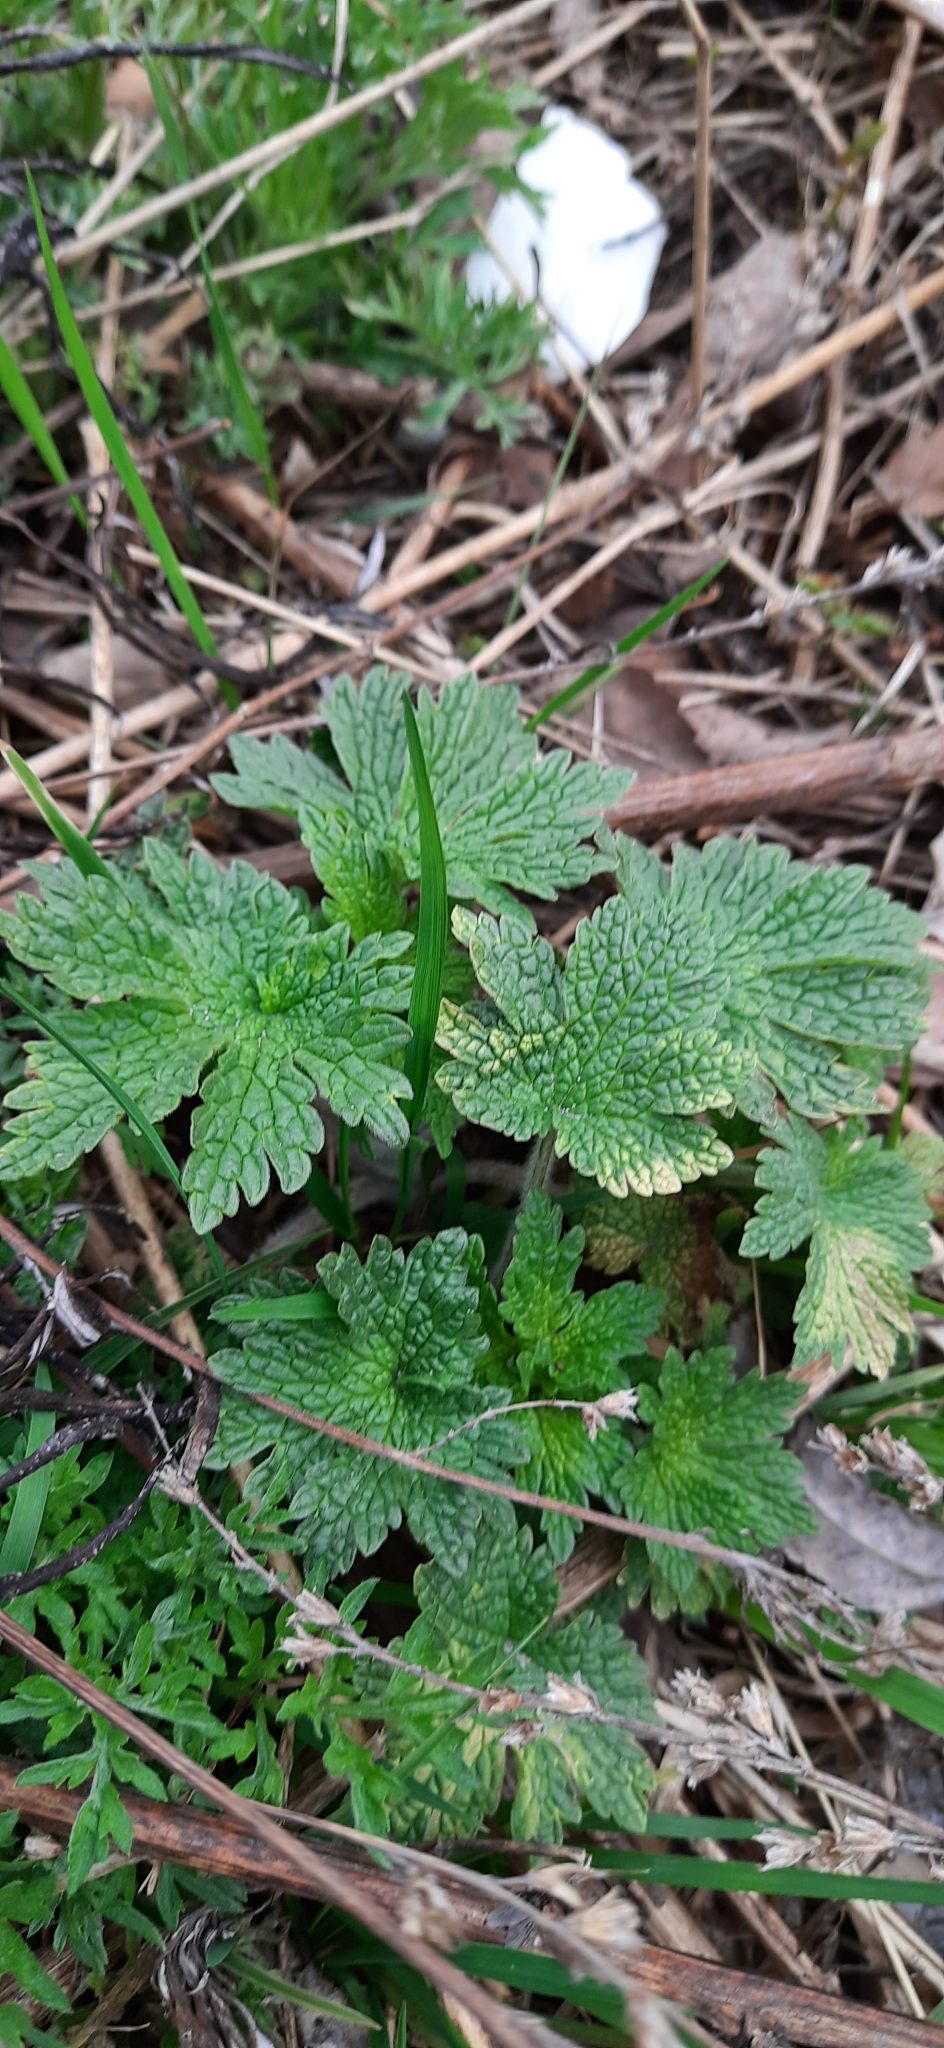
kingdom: Plantae
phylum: Tracheophyta
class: Magnoliopsida
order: Lamiales
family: Lamiaceae
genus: Leonurus
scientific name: Leonurus quinquelobatus
